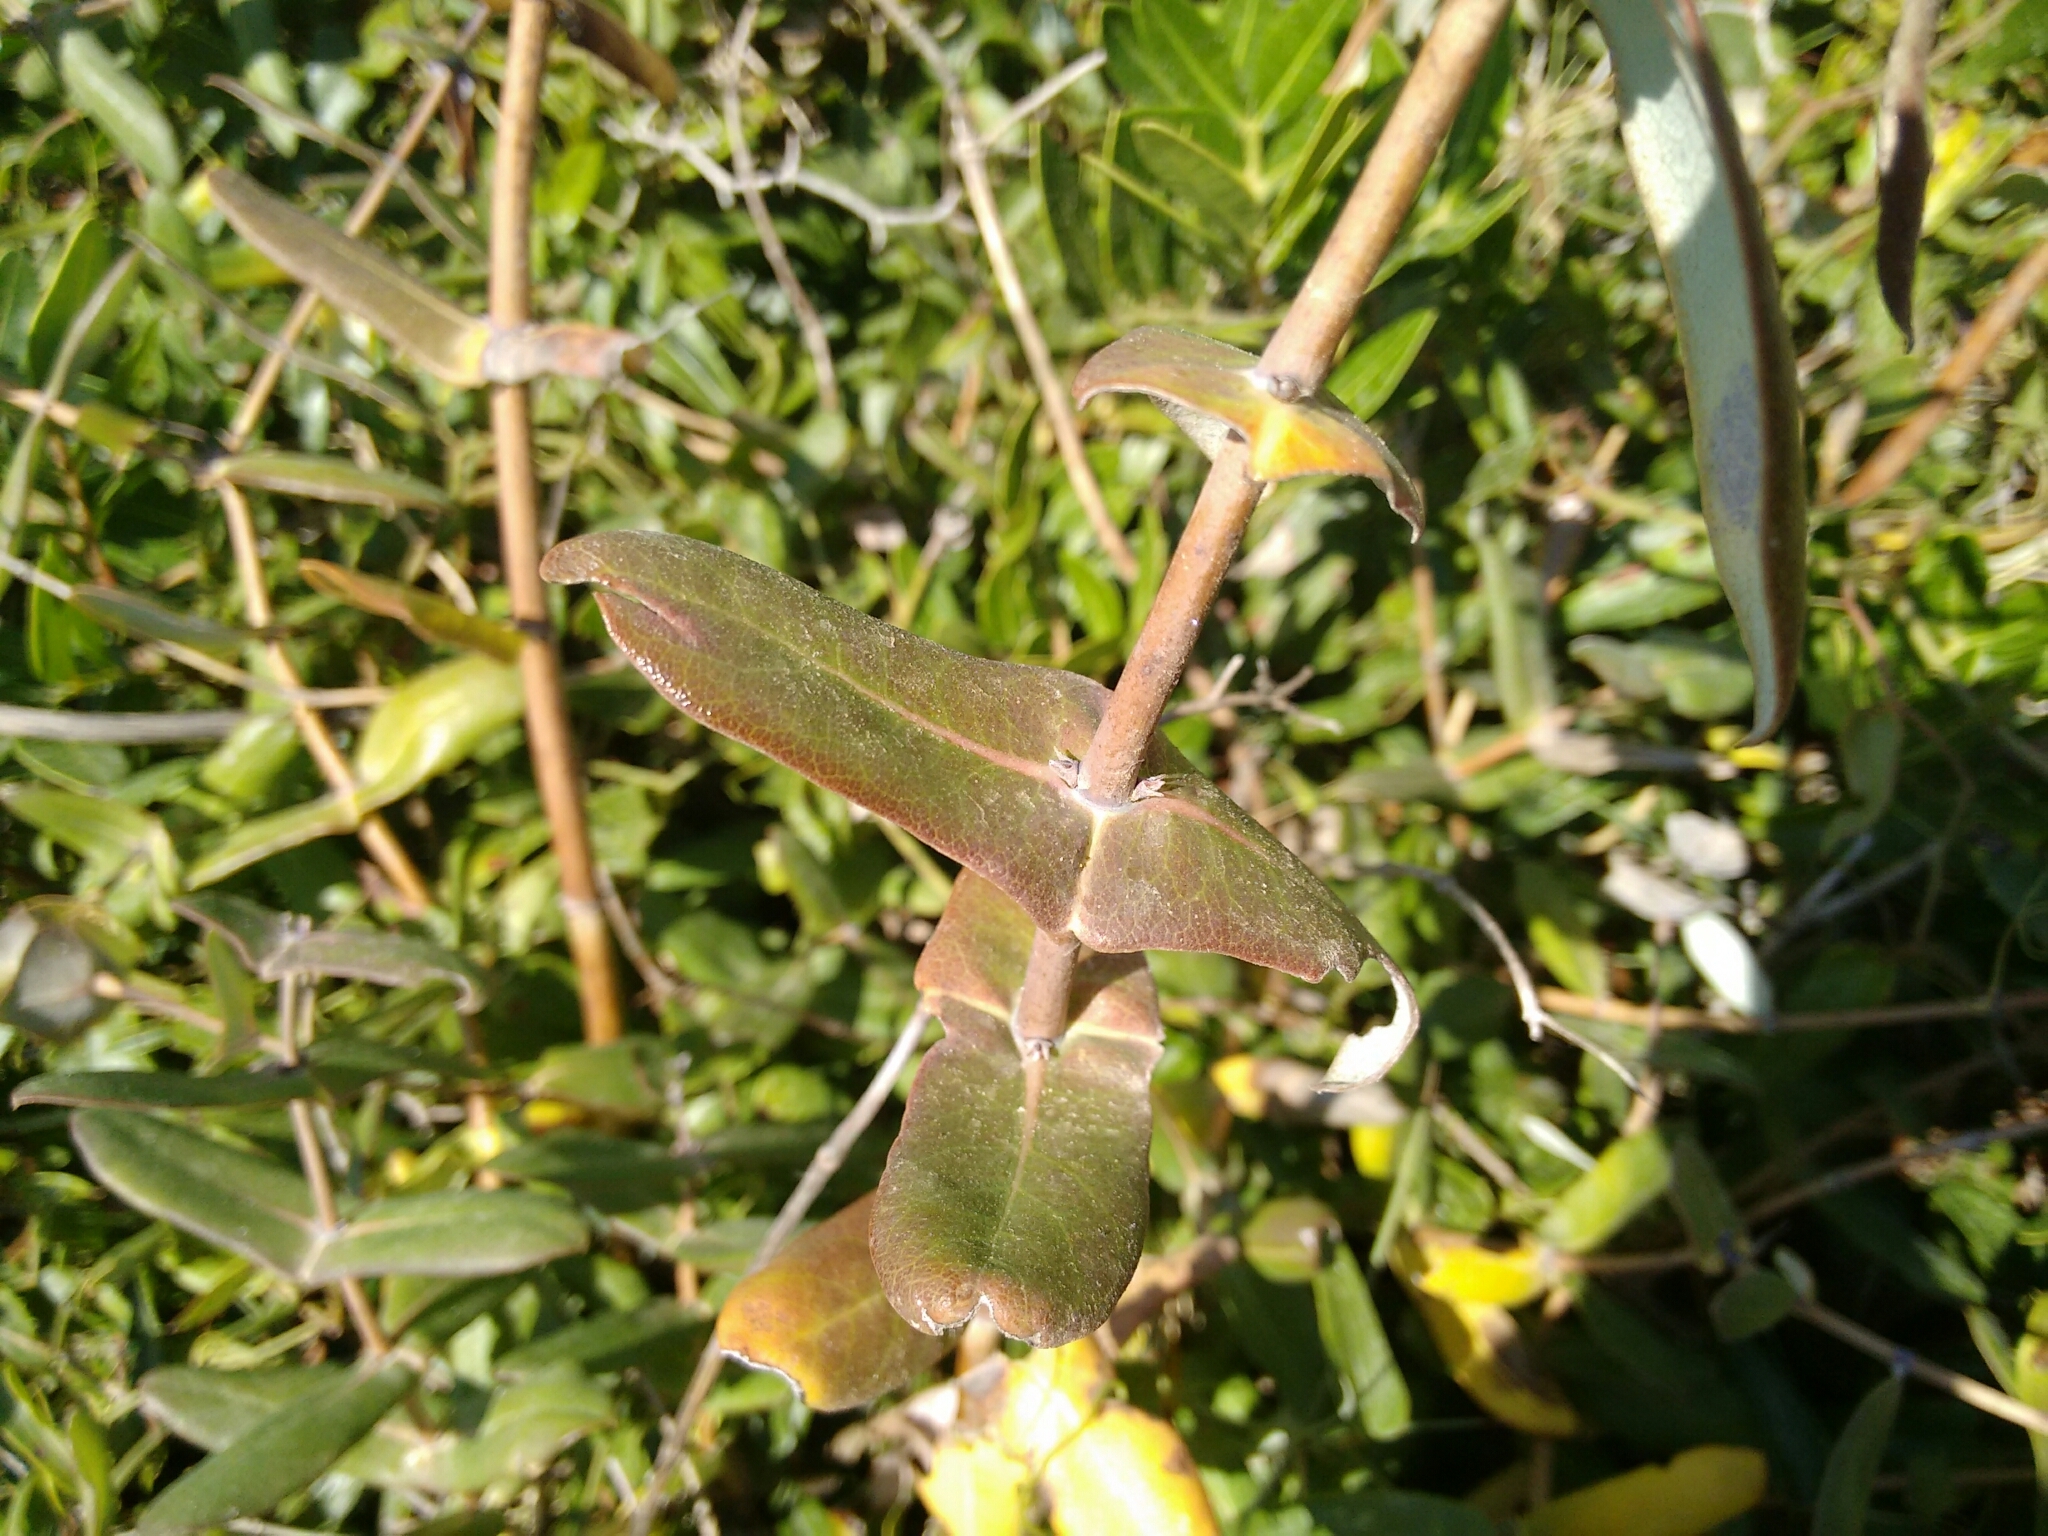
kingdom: Plantae
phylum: Tracheophyta
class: Magnoliopsida
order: Dipsacales
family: Caprifoliaceae
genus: Lonicera
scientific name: Lonicera implexa
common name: Minorca honeysuckle
